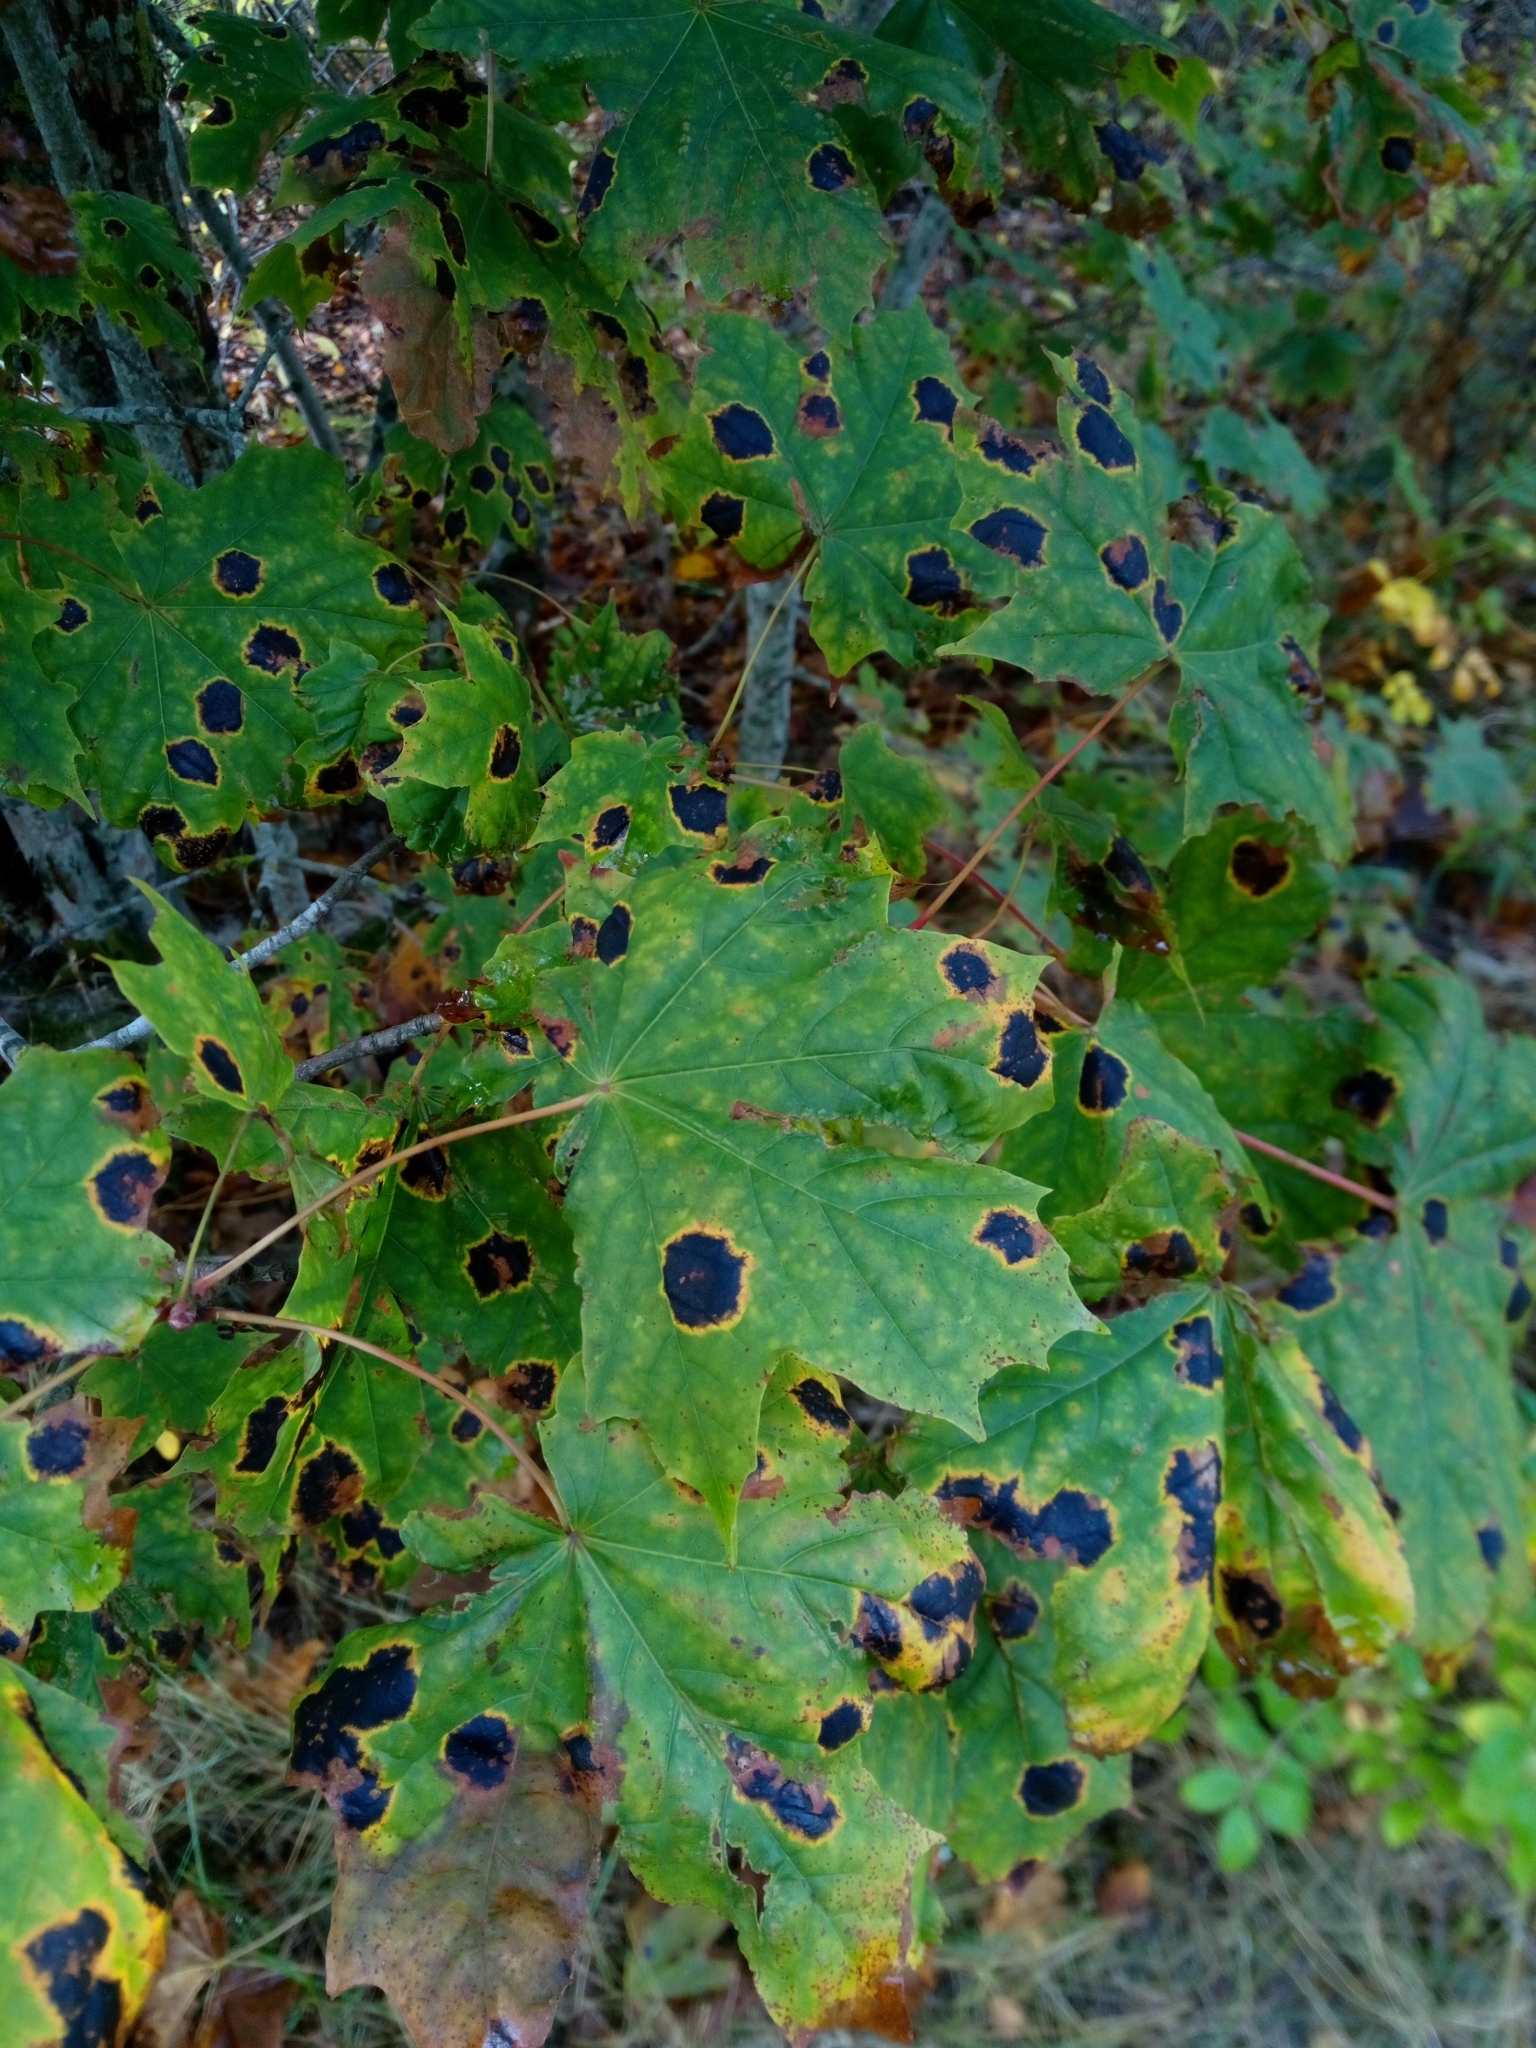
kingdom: Fungi
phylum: Ascomycota
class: Leotiomycetes
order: Rhytismatales
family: Rhytismataceae
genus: Rhytisma
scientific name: Rhytisma acerinum
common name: European tar spot
